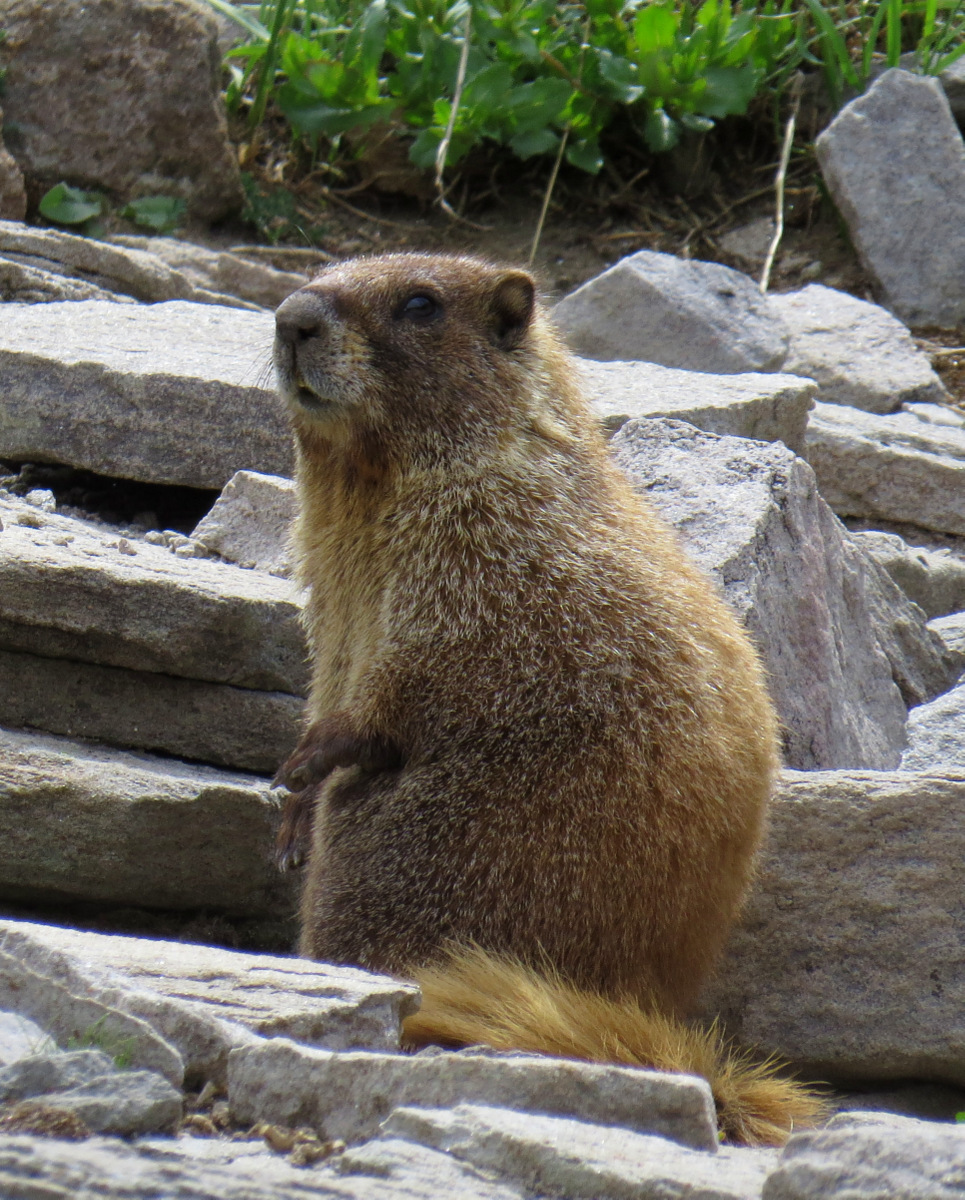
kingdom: Animalia
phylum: Chordata
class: Mammalia
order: Rodentia
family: Sciuridae
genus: Marmota
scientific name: Marmota flaviventris
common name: Yellow-bellied marmot
